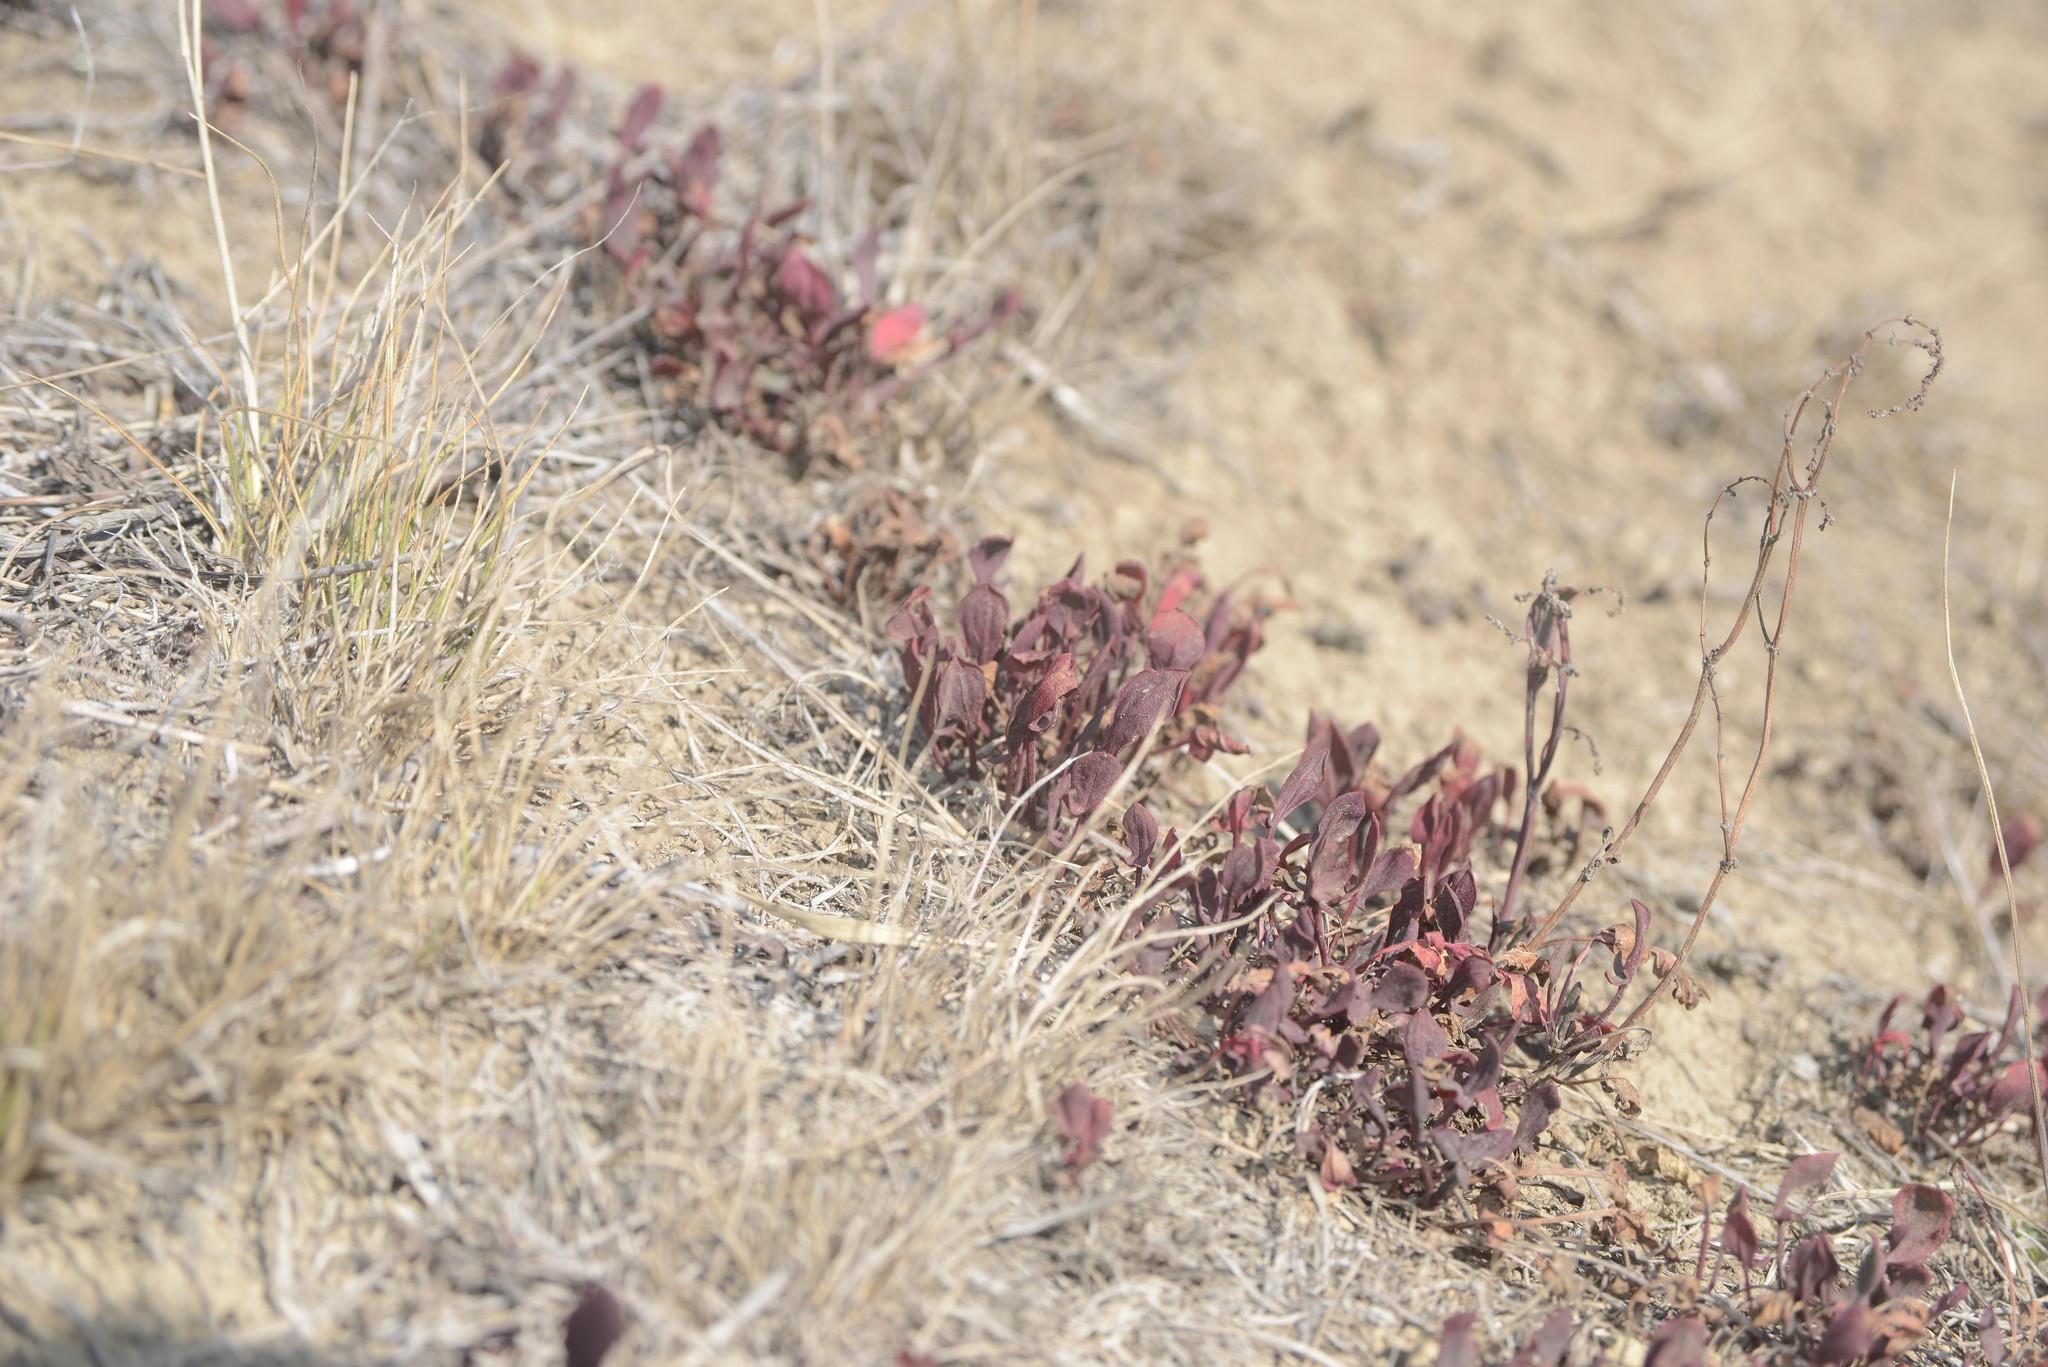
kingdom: Plantae
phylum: Tracheophyta
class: Magnoliopsida
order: Caryophyllales
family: Polygonaceae
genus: Rumex
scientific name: Rumex acetosella
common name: Common sheep sorrel
